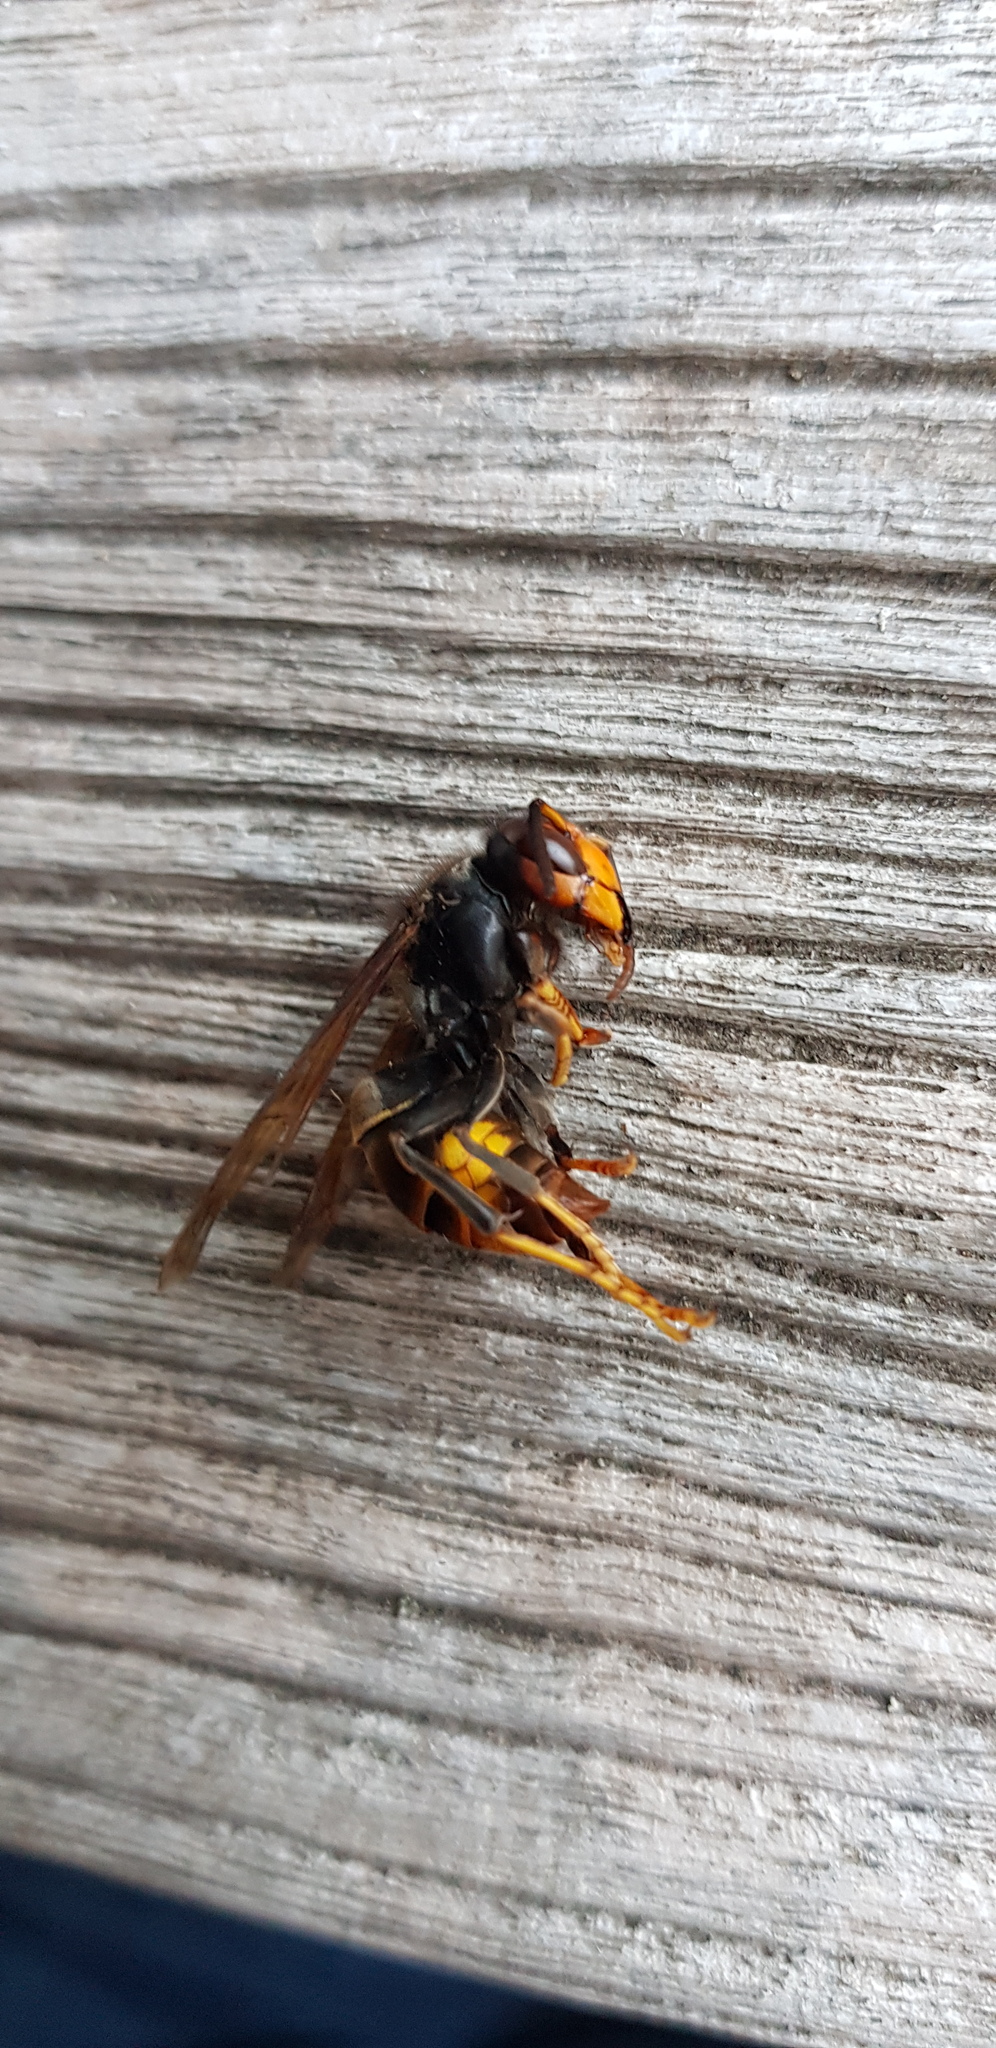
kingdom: Animalia
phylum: Arthropoda
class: Insecta
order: Hymenoptera
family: Vespidae
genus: Vespa
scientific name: Vespa velutina
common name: Asian hornet
